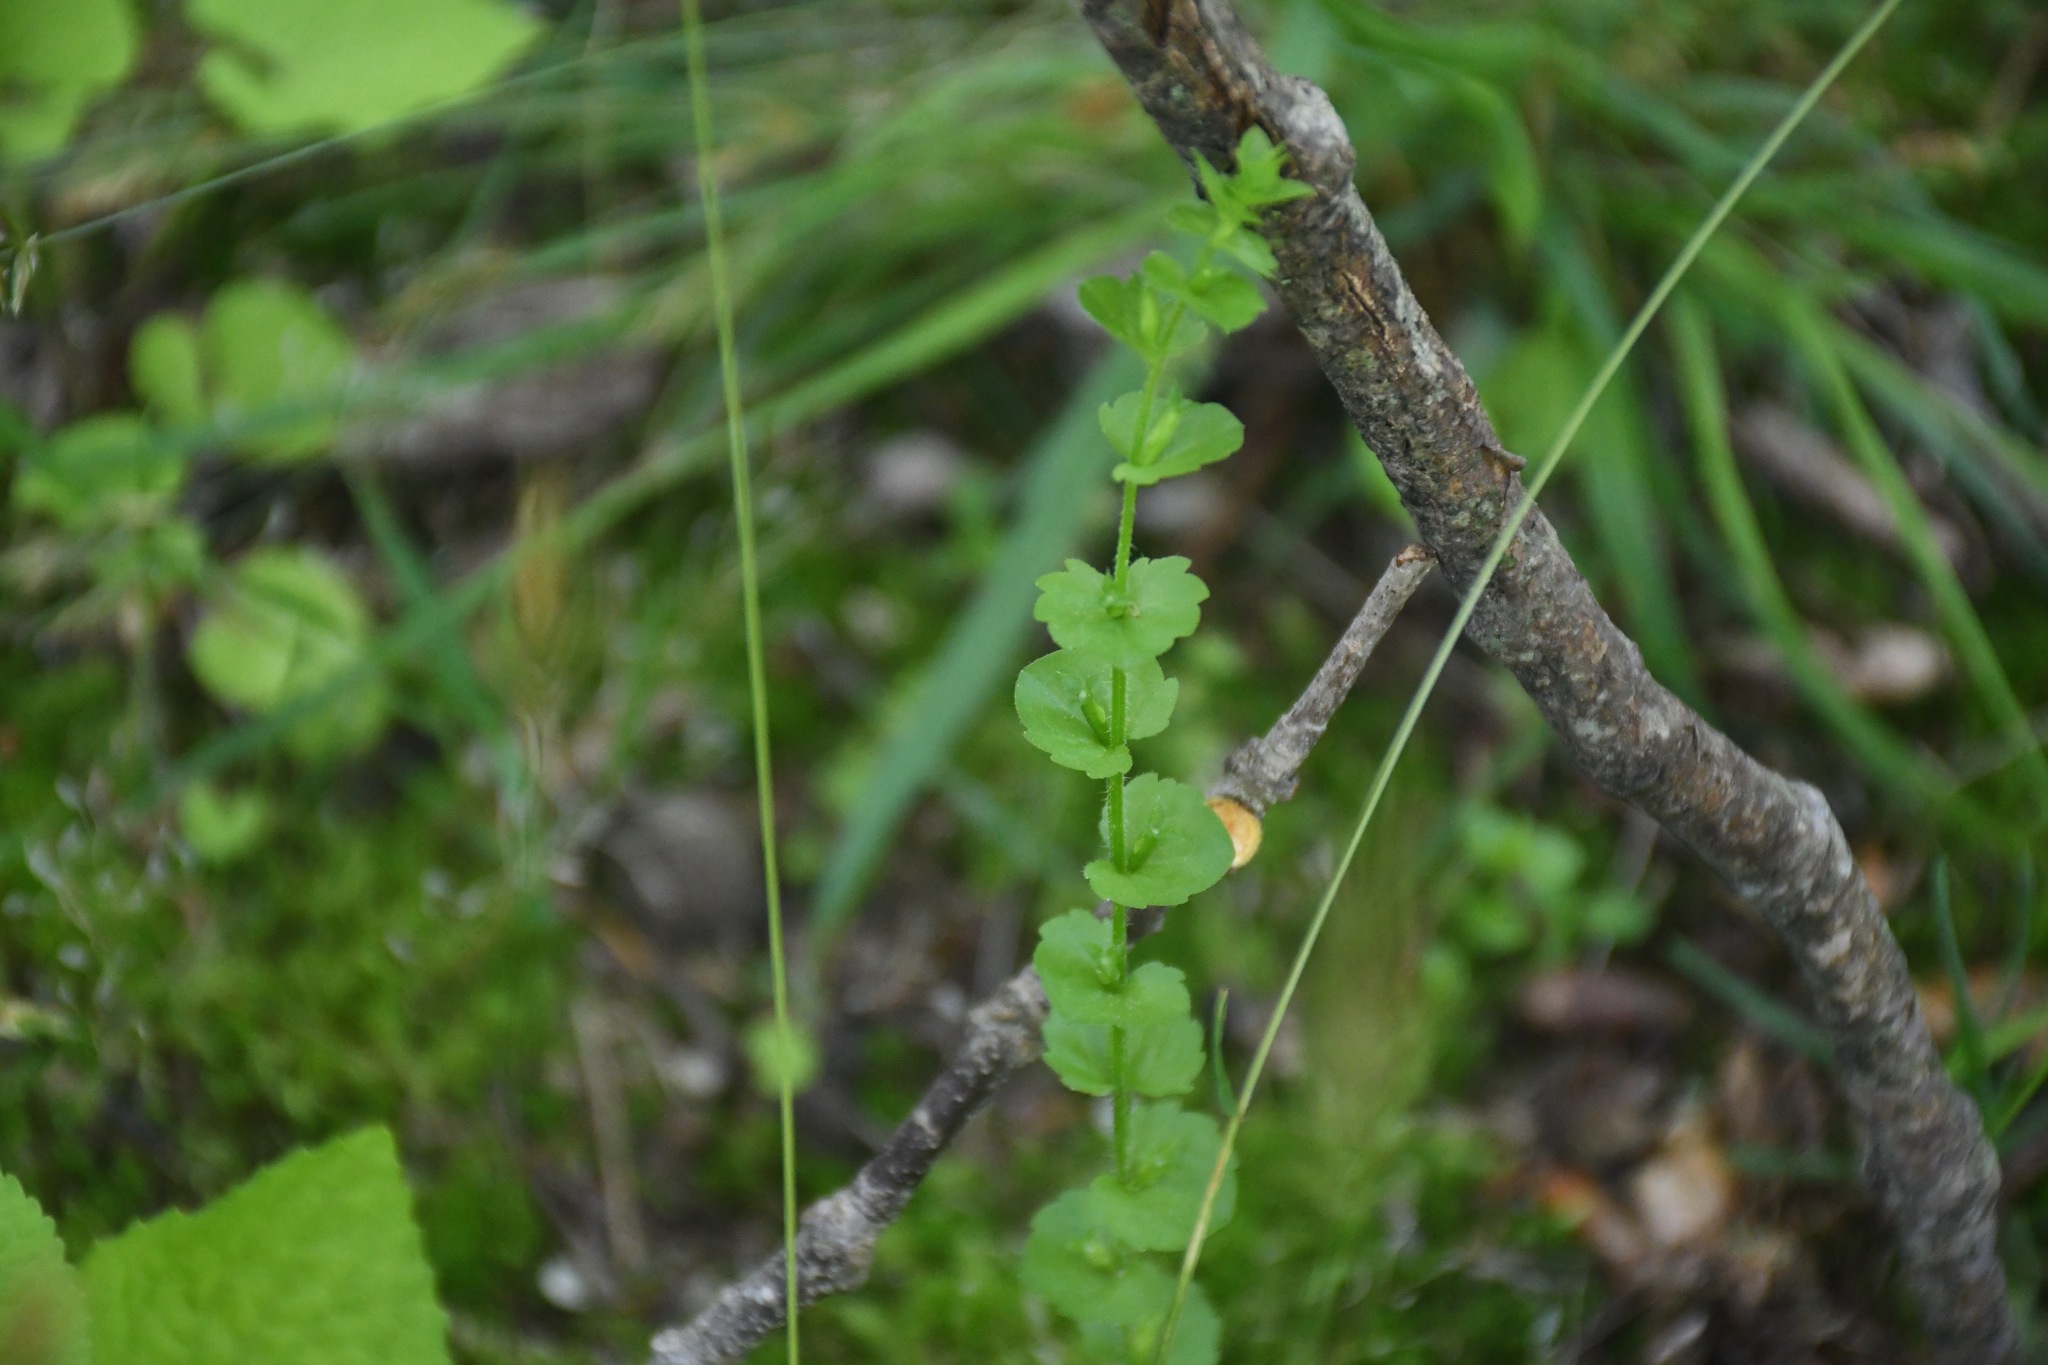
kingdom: Plantae
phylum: Tracheophyta
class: Magnoliopsida
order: Asterales
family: Campanulaceae
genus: Triodanis
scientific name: Triodanis perfoliata
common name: Clasping venus' looking-glass
